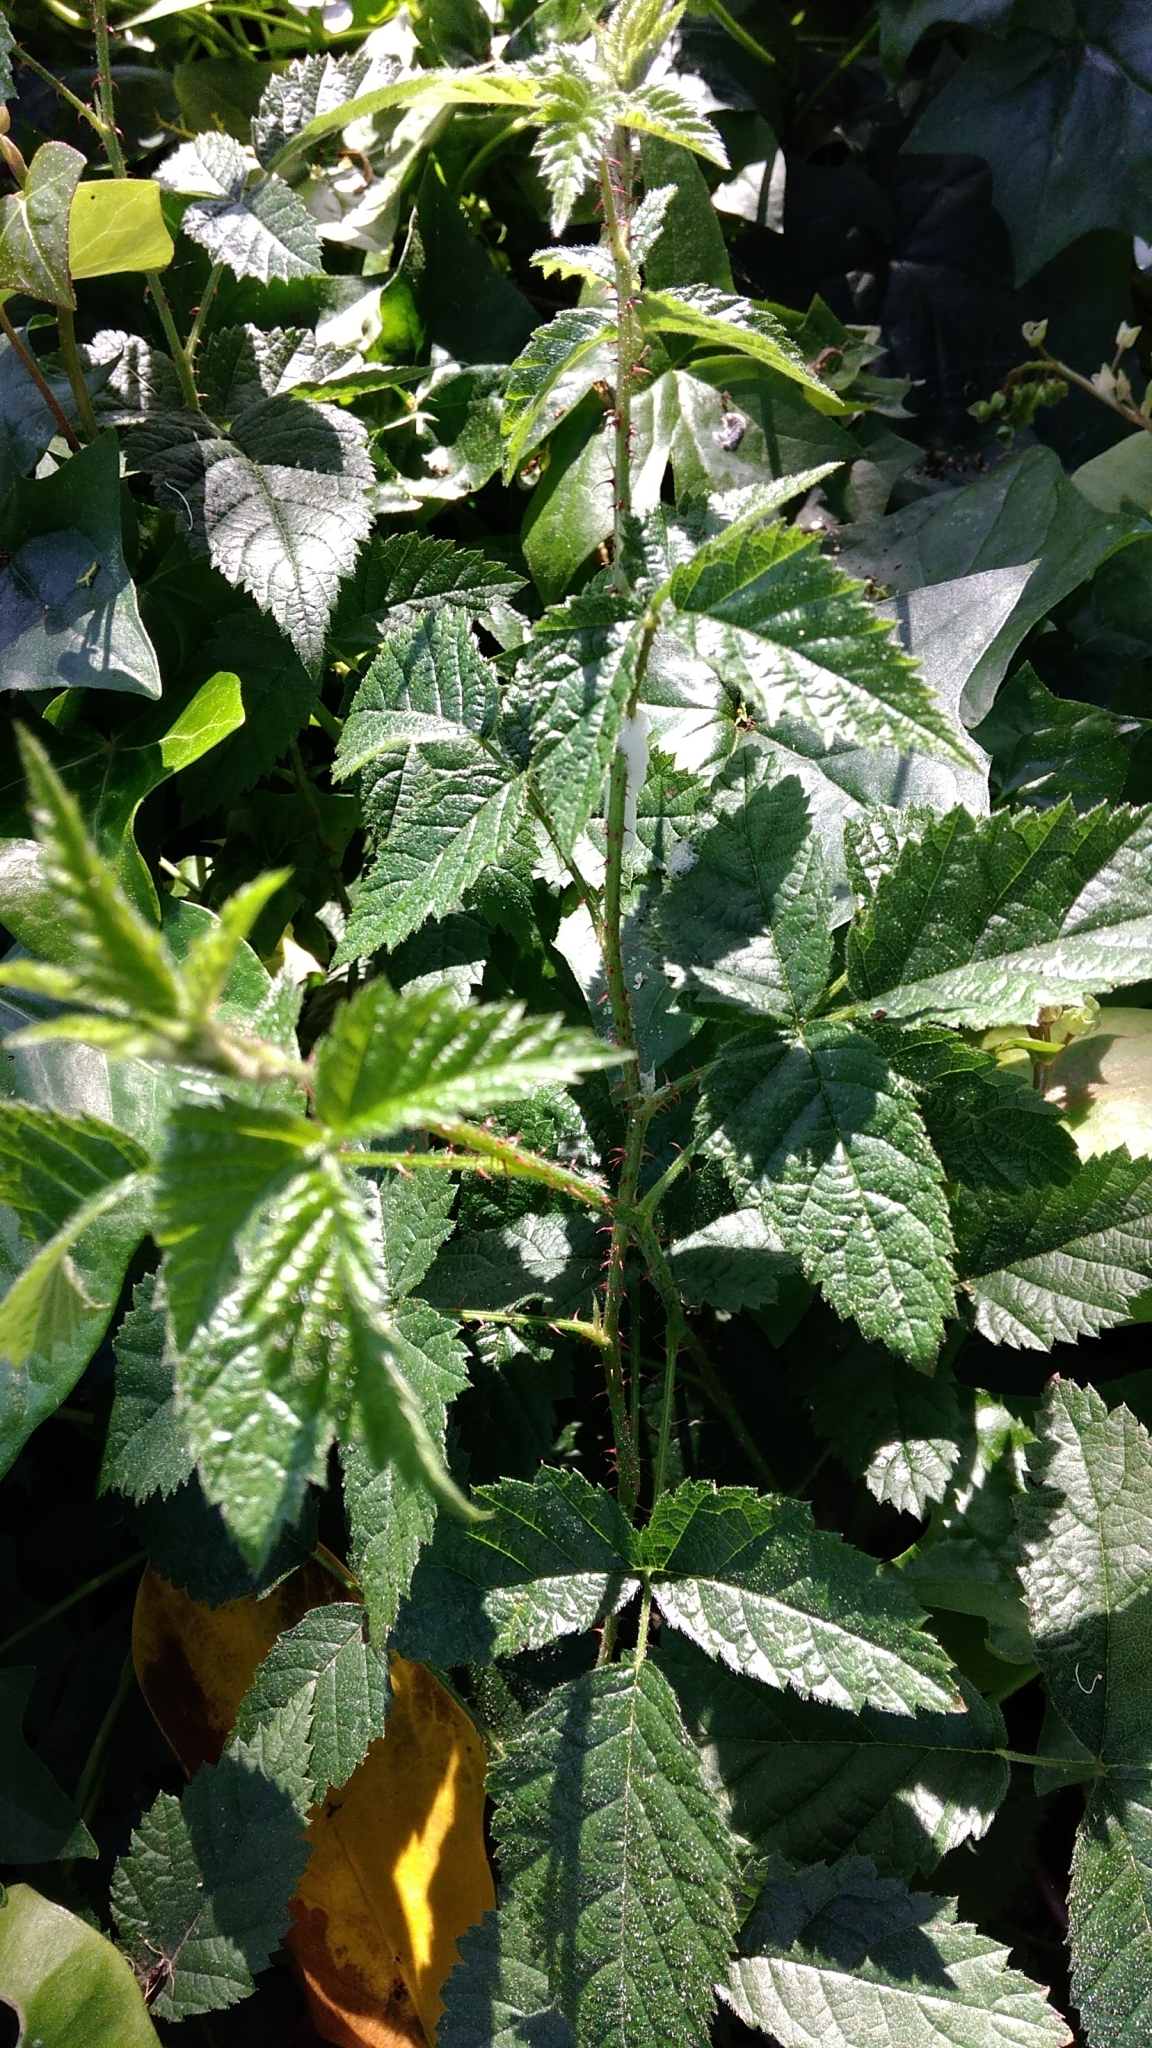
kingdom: Plantae
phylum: Tracheophyta
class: Magnoliopsida
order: Rosales
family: Rosaceae
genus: Rubus
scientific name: Rubus ursinus
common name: Pacific blackberry
